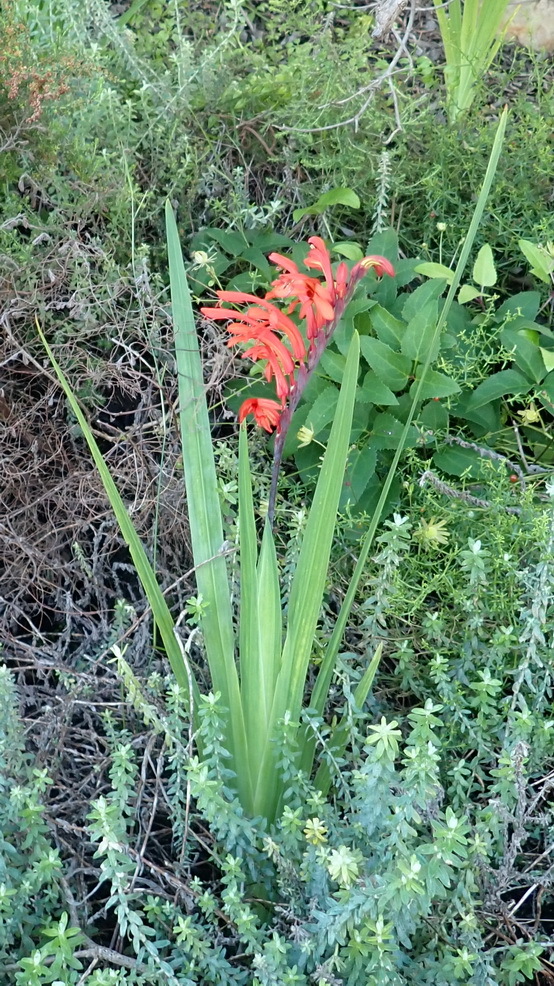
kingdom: Plantae
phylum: Tracheophyta
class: Liliopsida
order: Asparagales
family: Iridaceae
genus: Chasmanthe
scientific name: Chasmanthe aethiopica
